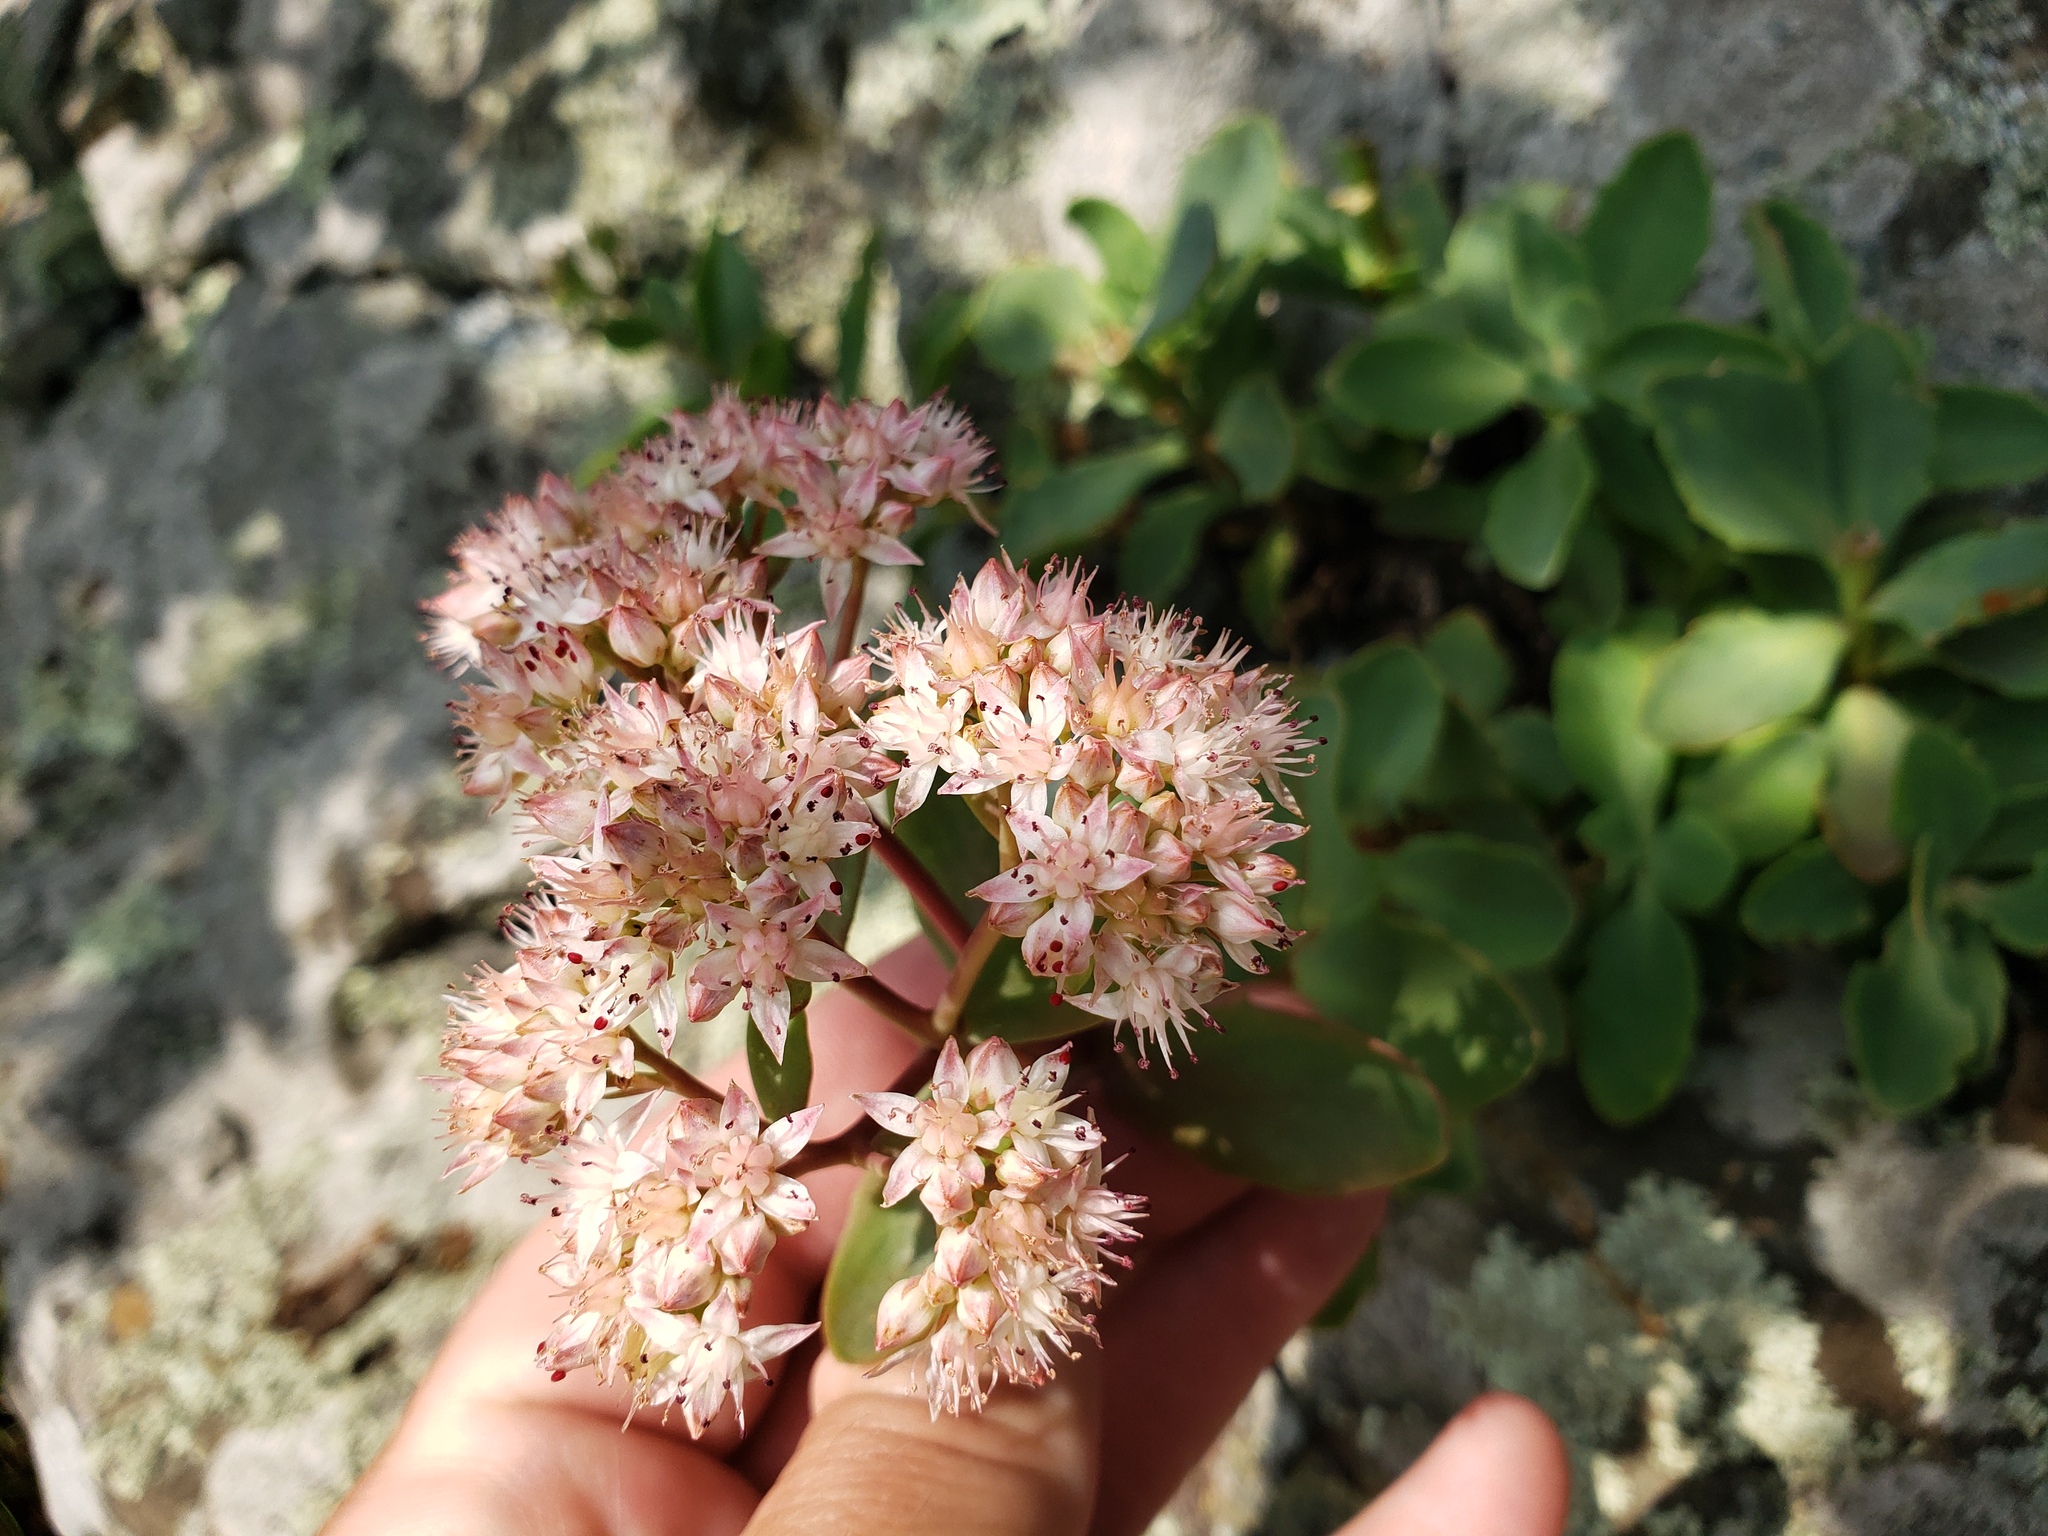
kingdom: Plantae
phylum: Tracheophyta
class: Magnoliopsida
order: Saxifragales
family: Crassulaceae
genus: Hylotelephium
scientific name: Hylotelephium telephioides
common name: Allegheny stonecrop
